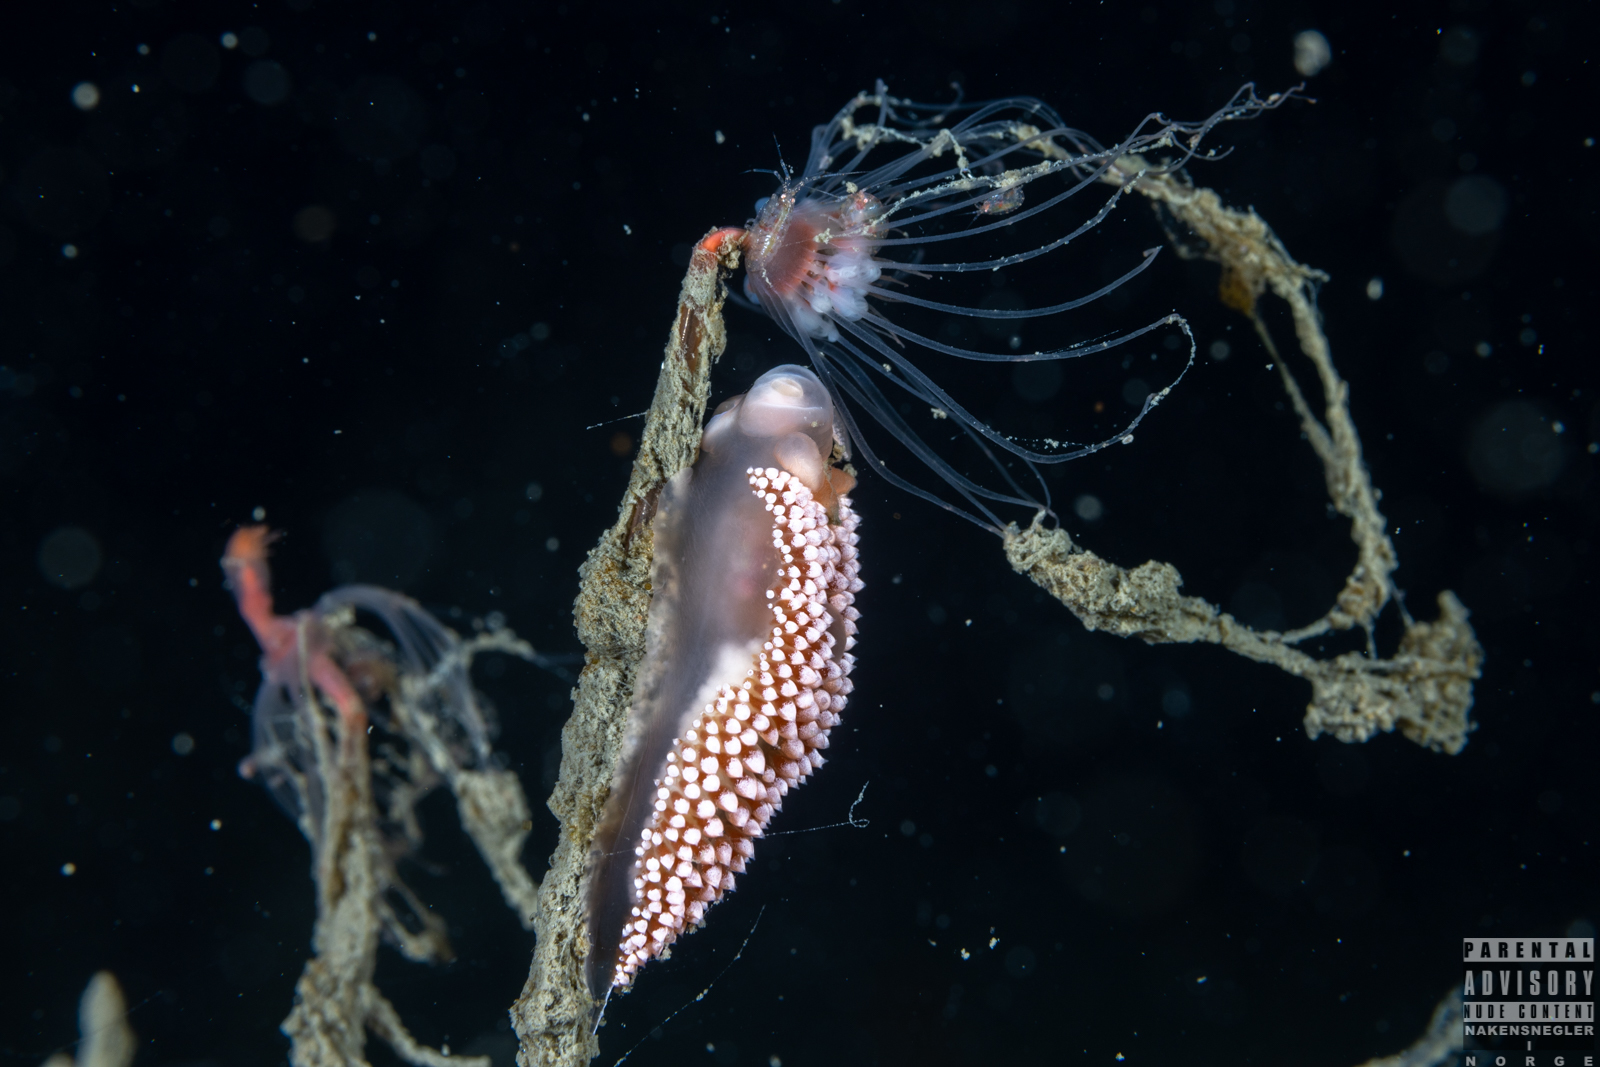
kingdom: Animalia
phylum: Mollusca
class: Gastropoda
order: Nudibranchia
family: Coryphellidae
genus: Coryphella
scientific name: Coryphella verrucosa
